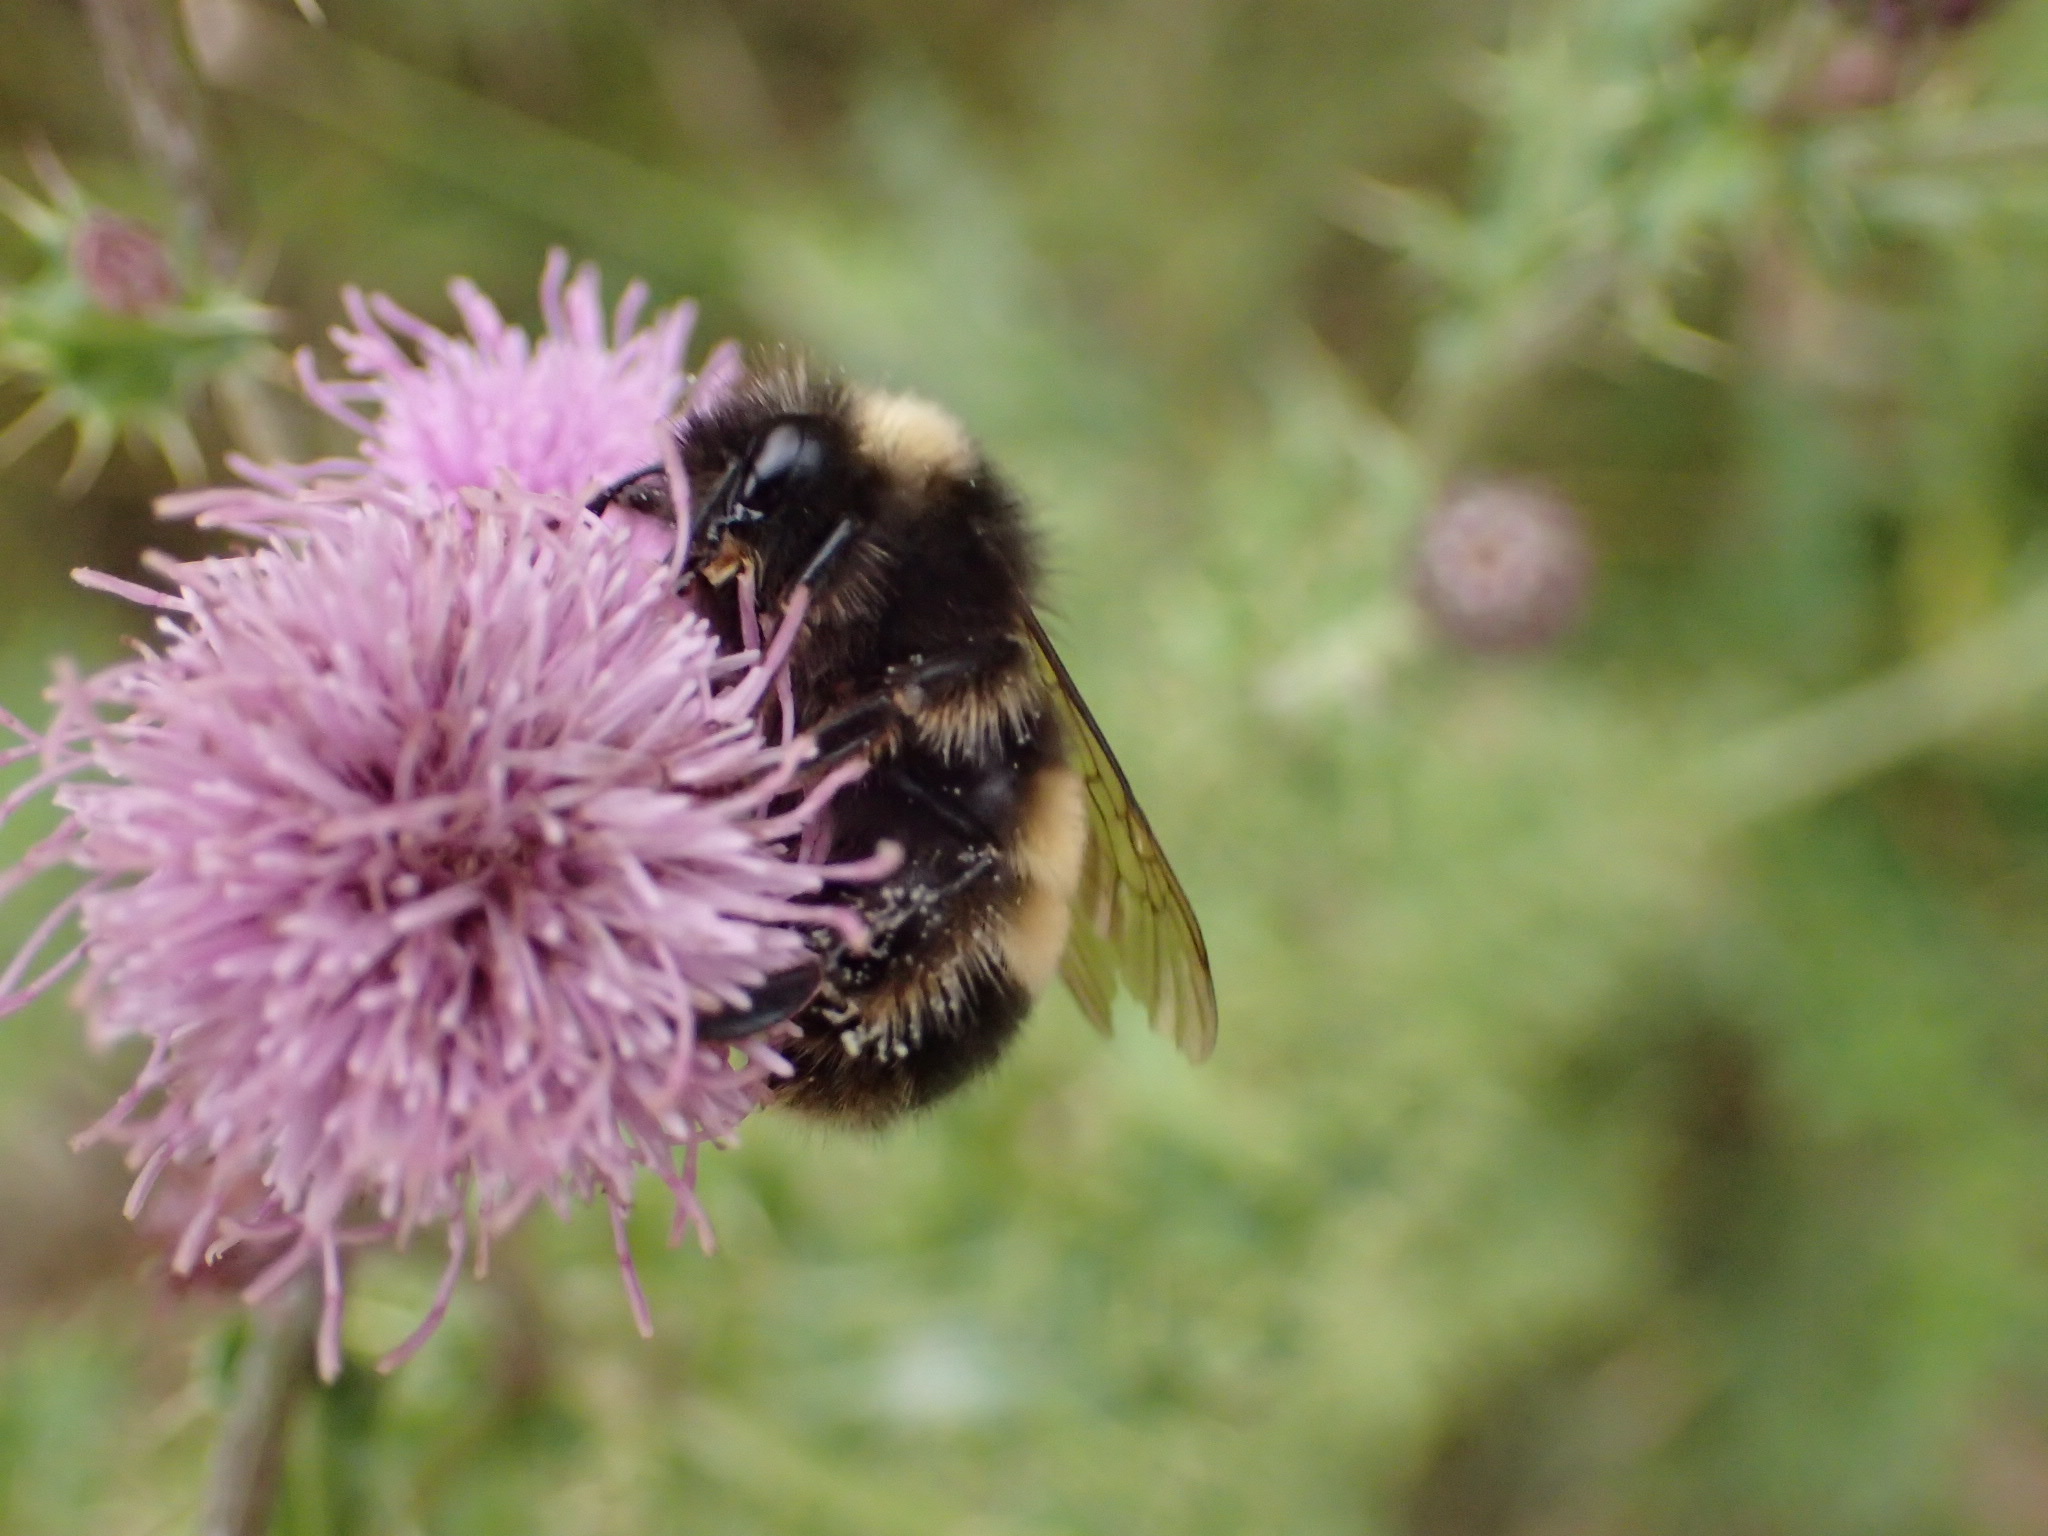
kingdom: Animalia
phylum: Arthropoda
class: Insecta
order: Hymenoptera
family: Apidae
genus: Bombus
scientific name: Bombus terricola
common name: Yellow-banded bumble bee
